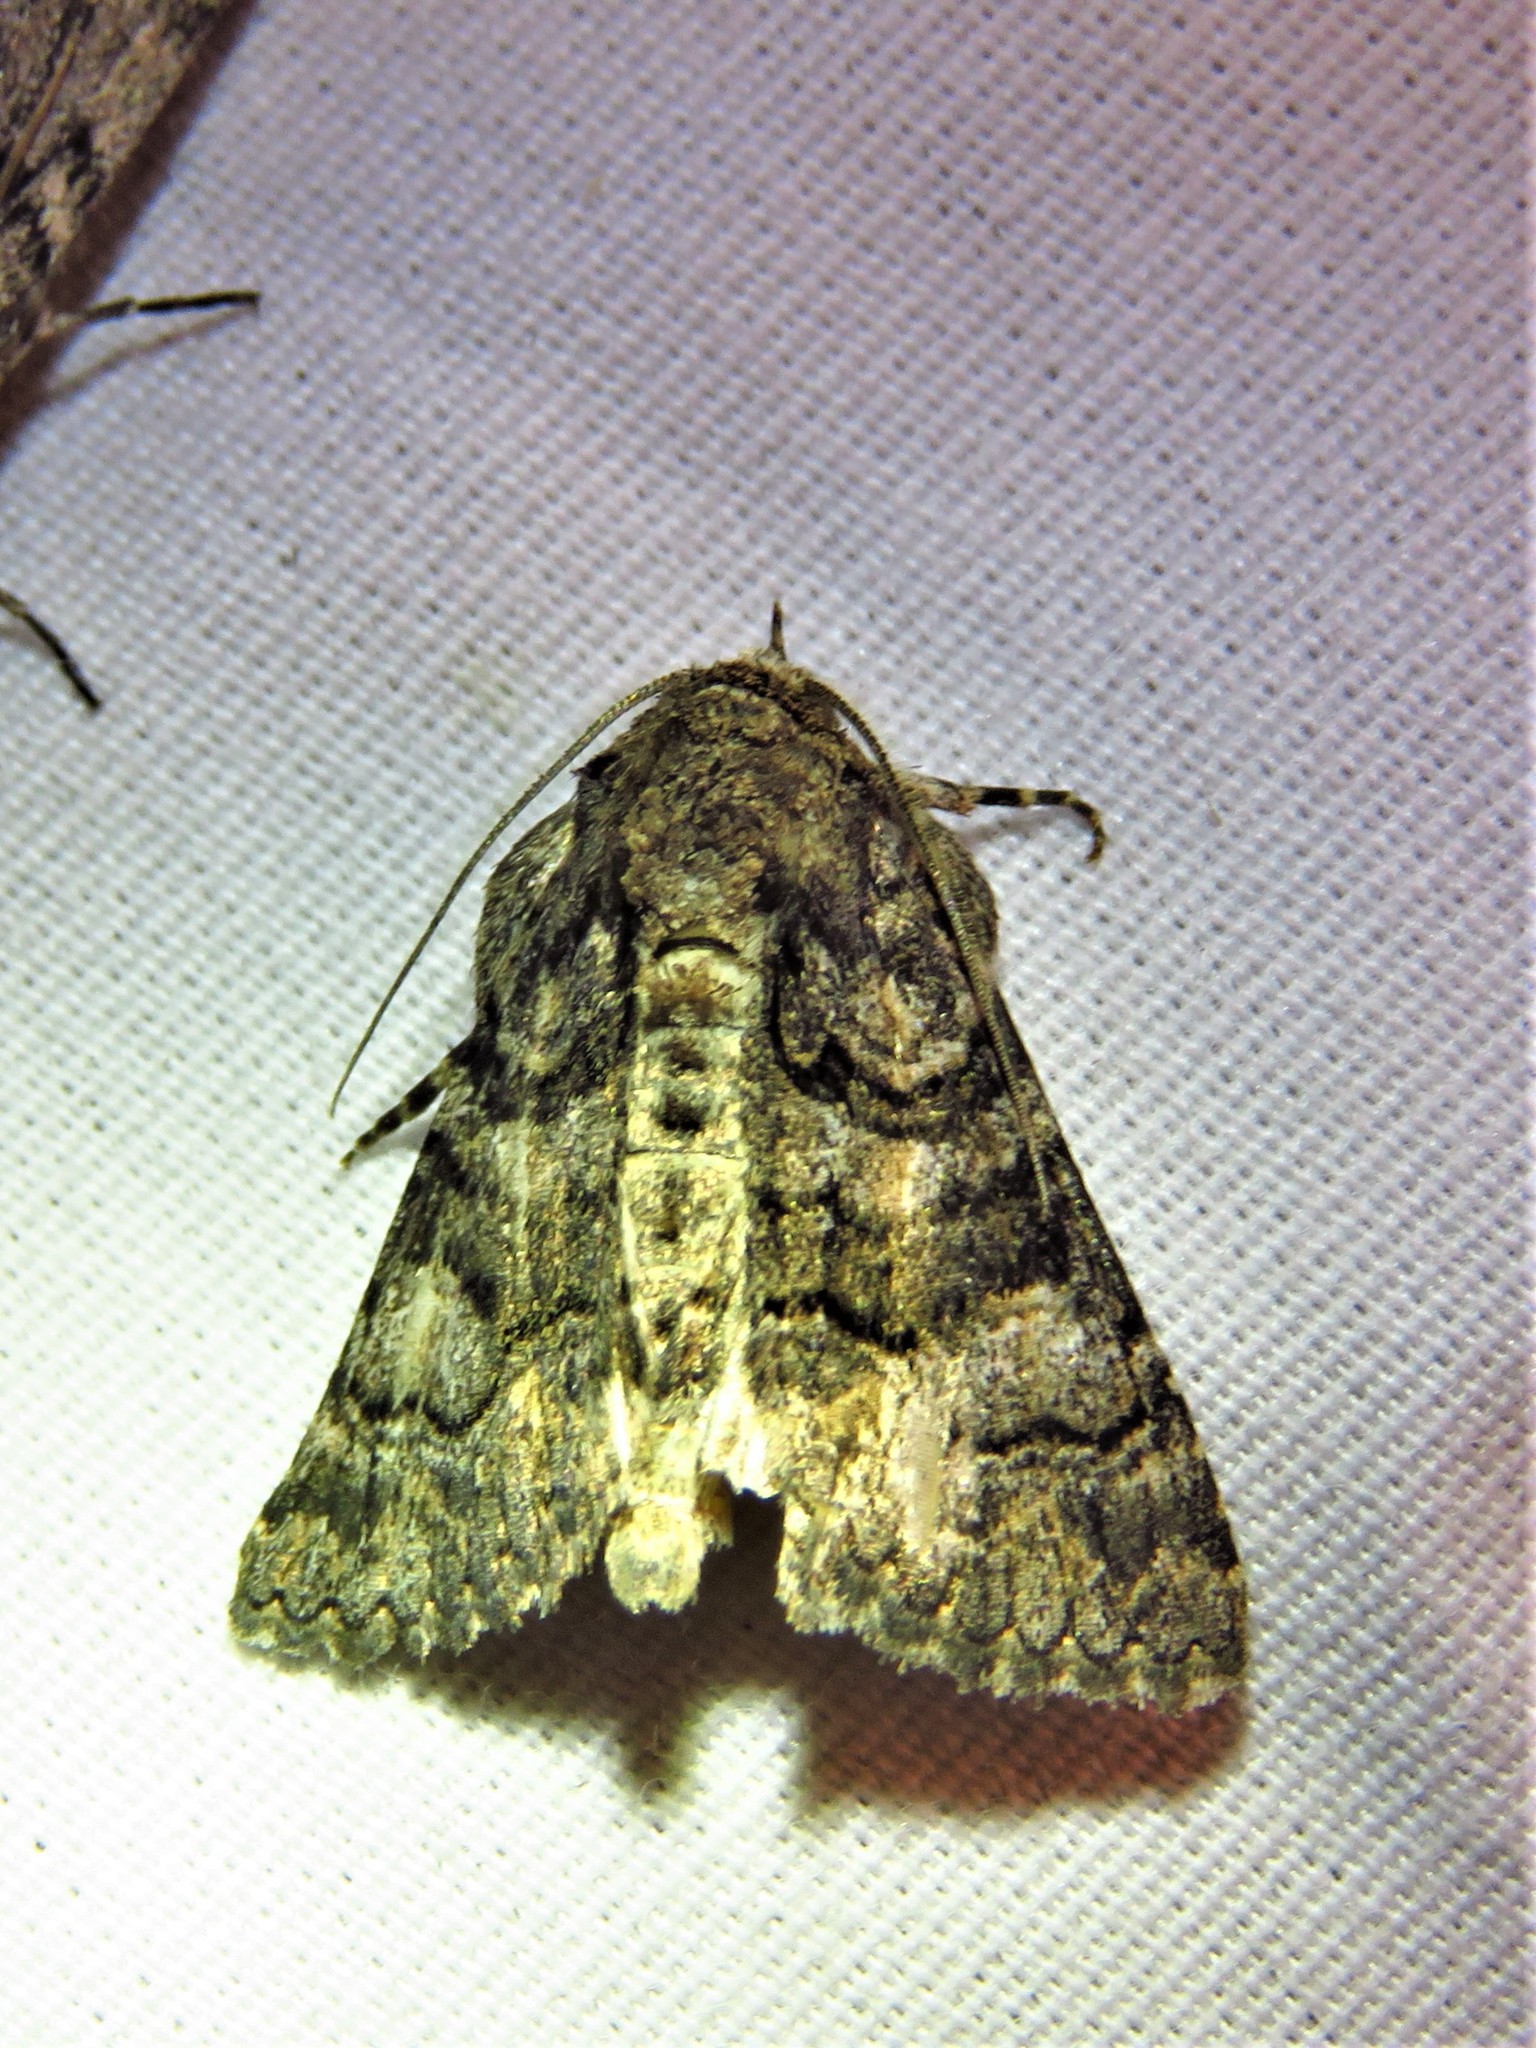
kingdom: Animalia
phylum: Arthropoda
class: Insecta
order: Lepidoptera
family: Erebidae
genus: Elousa
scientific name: Elousa mima
